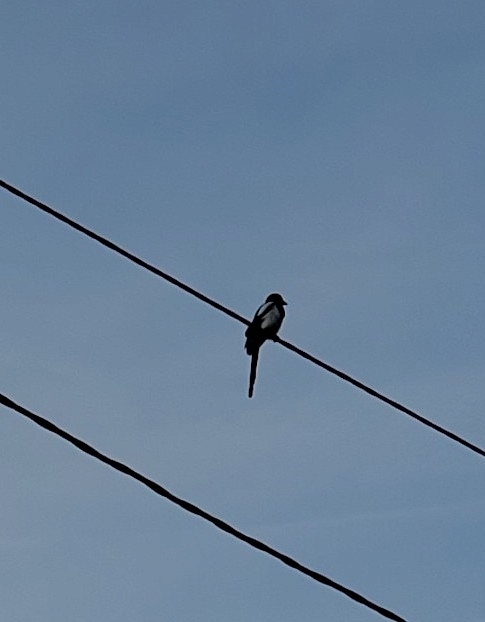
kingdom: Animalia
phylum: Chordata
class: Aves
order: Passeriformes
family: Corvidae
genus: Pica
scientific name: Pica pica
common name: Eurasian magpie
